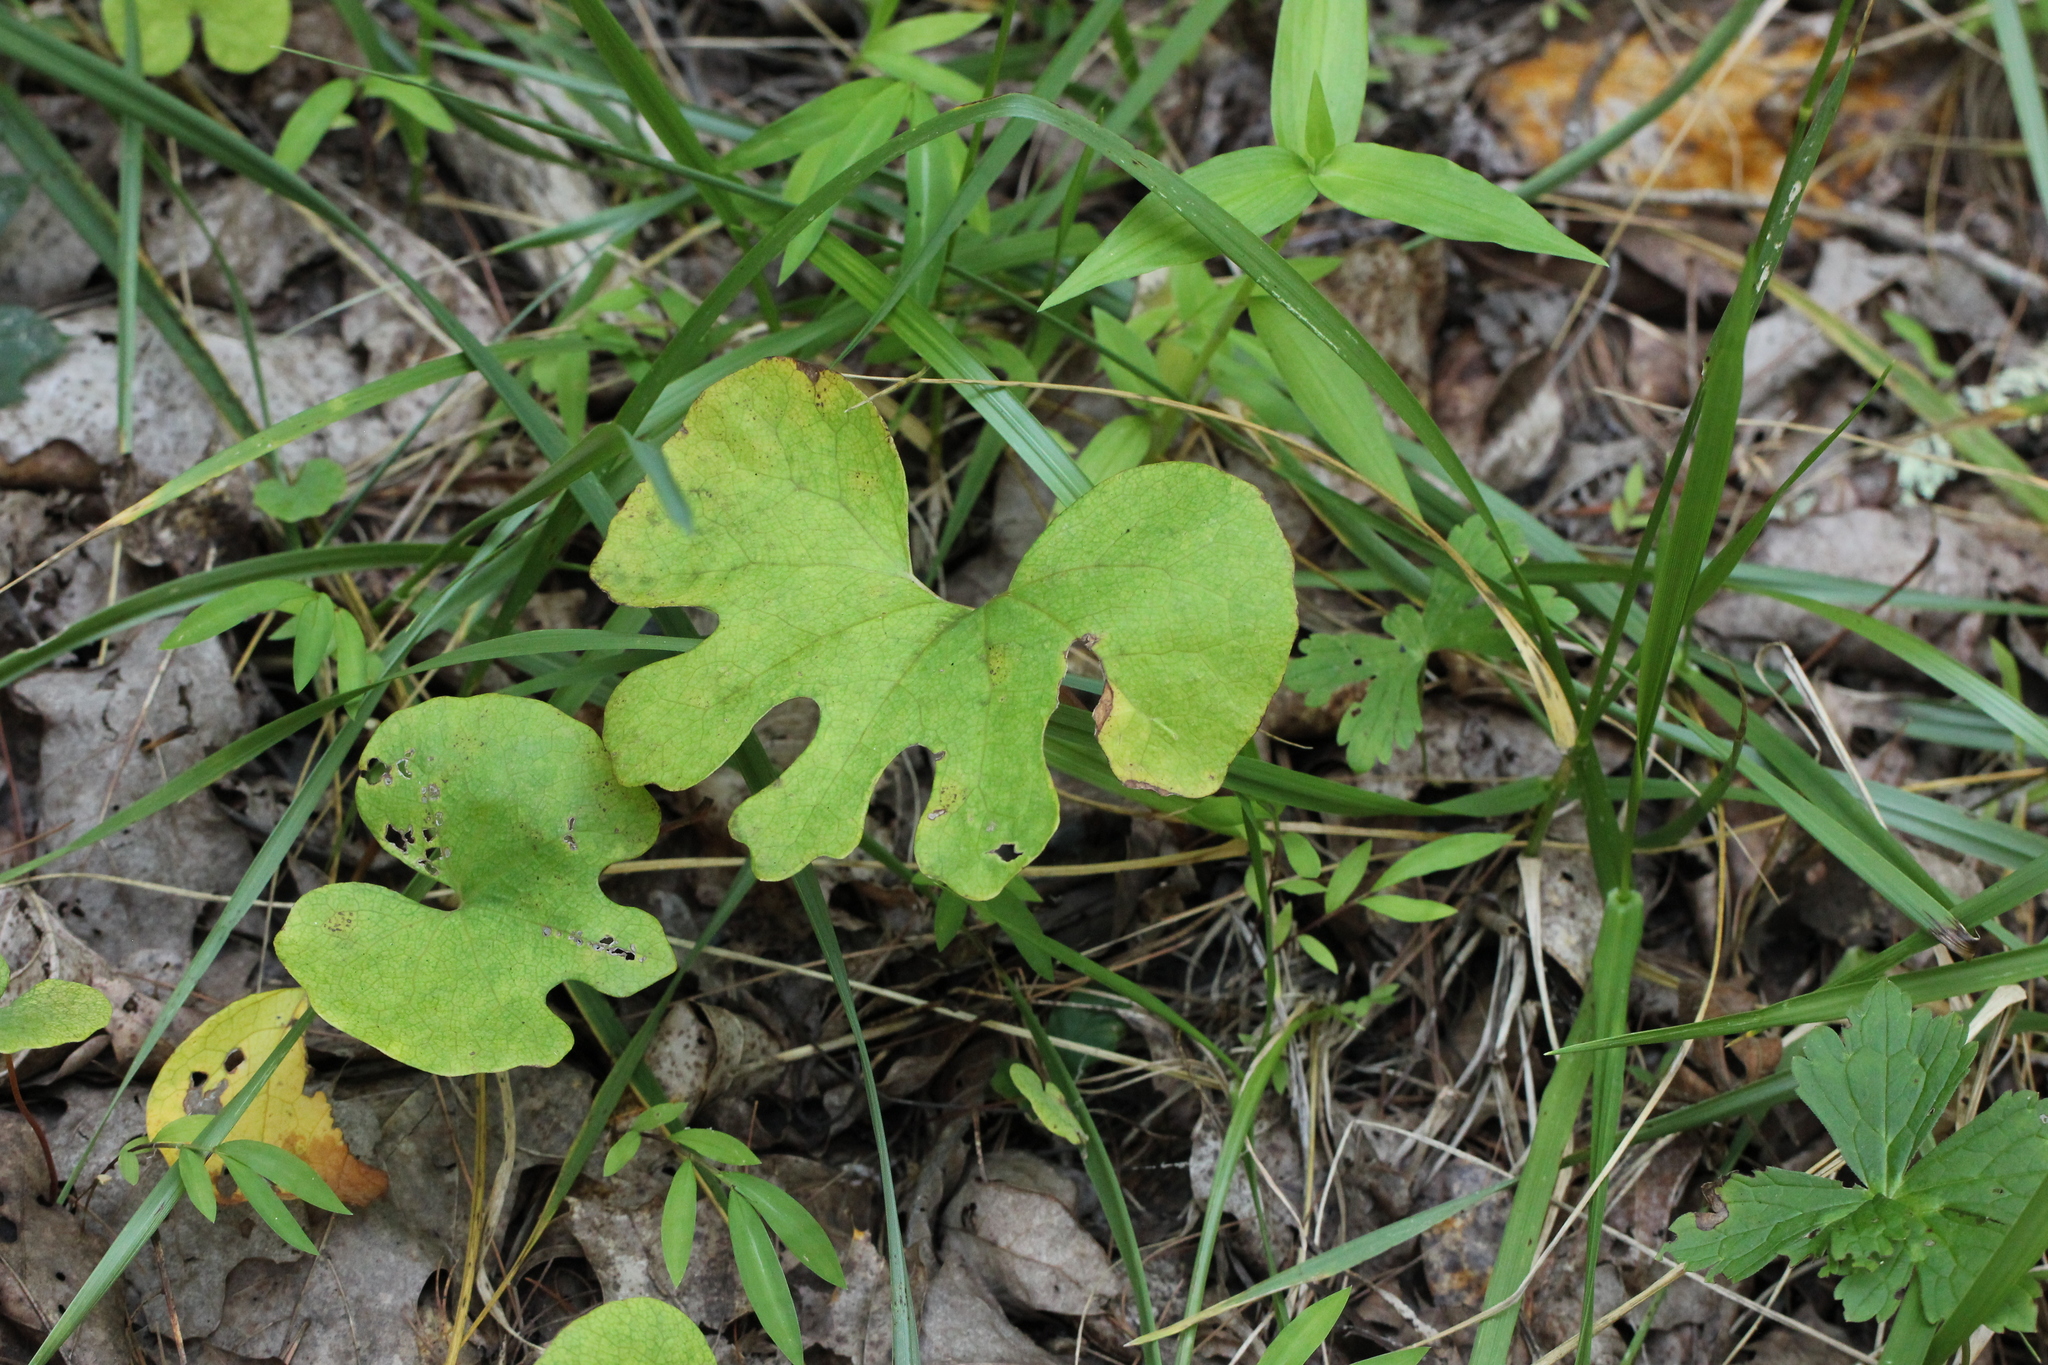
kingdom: Plantae
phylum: Tracheophyta
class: Magnoliopsida
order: Ranunculales
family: Papaveraceae
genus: Sanguinaria
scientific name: Sanguinaria canadensis
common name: Bloodroot
